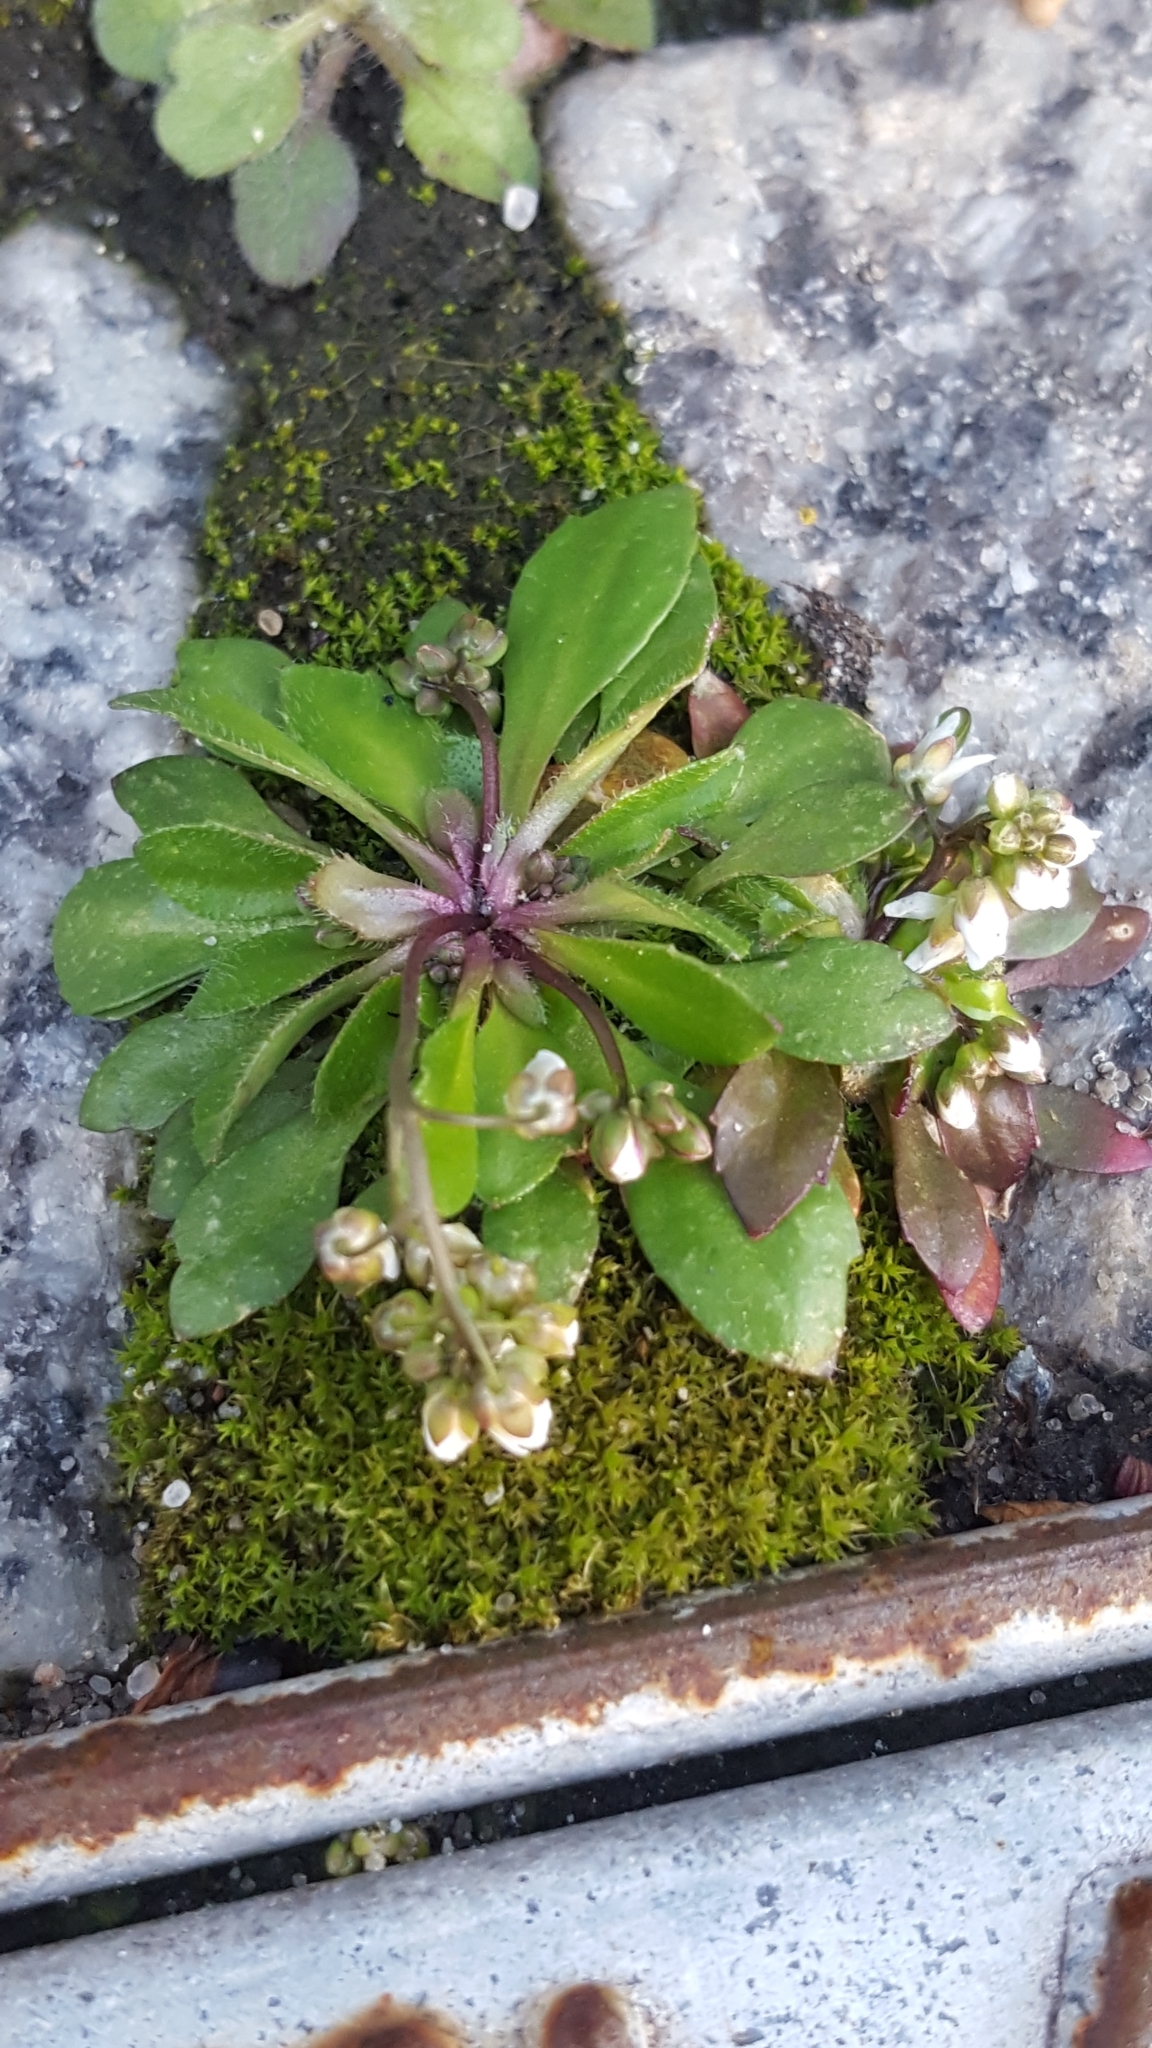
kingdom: Plantae
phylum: Tracheophyta
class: Magnoliopsida
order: Brassicales
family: Brassicaceae
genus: Draba
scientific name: Draba verna
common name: Spring draba
